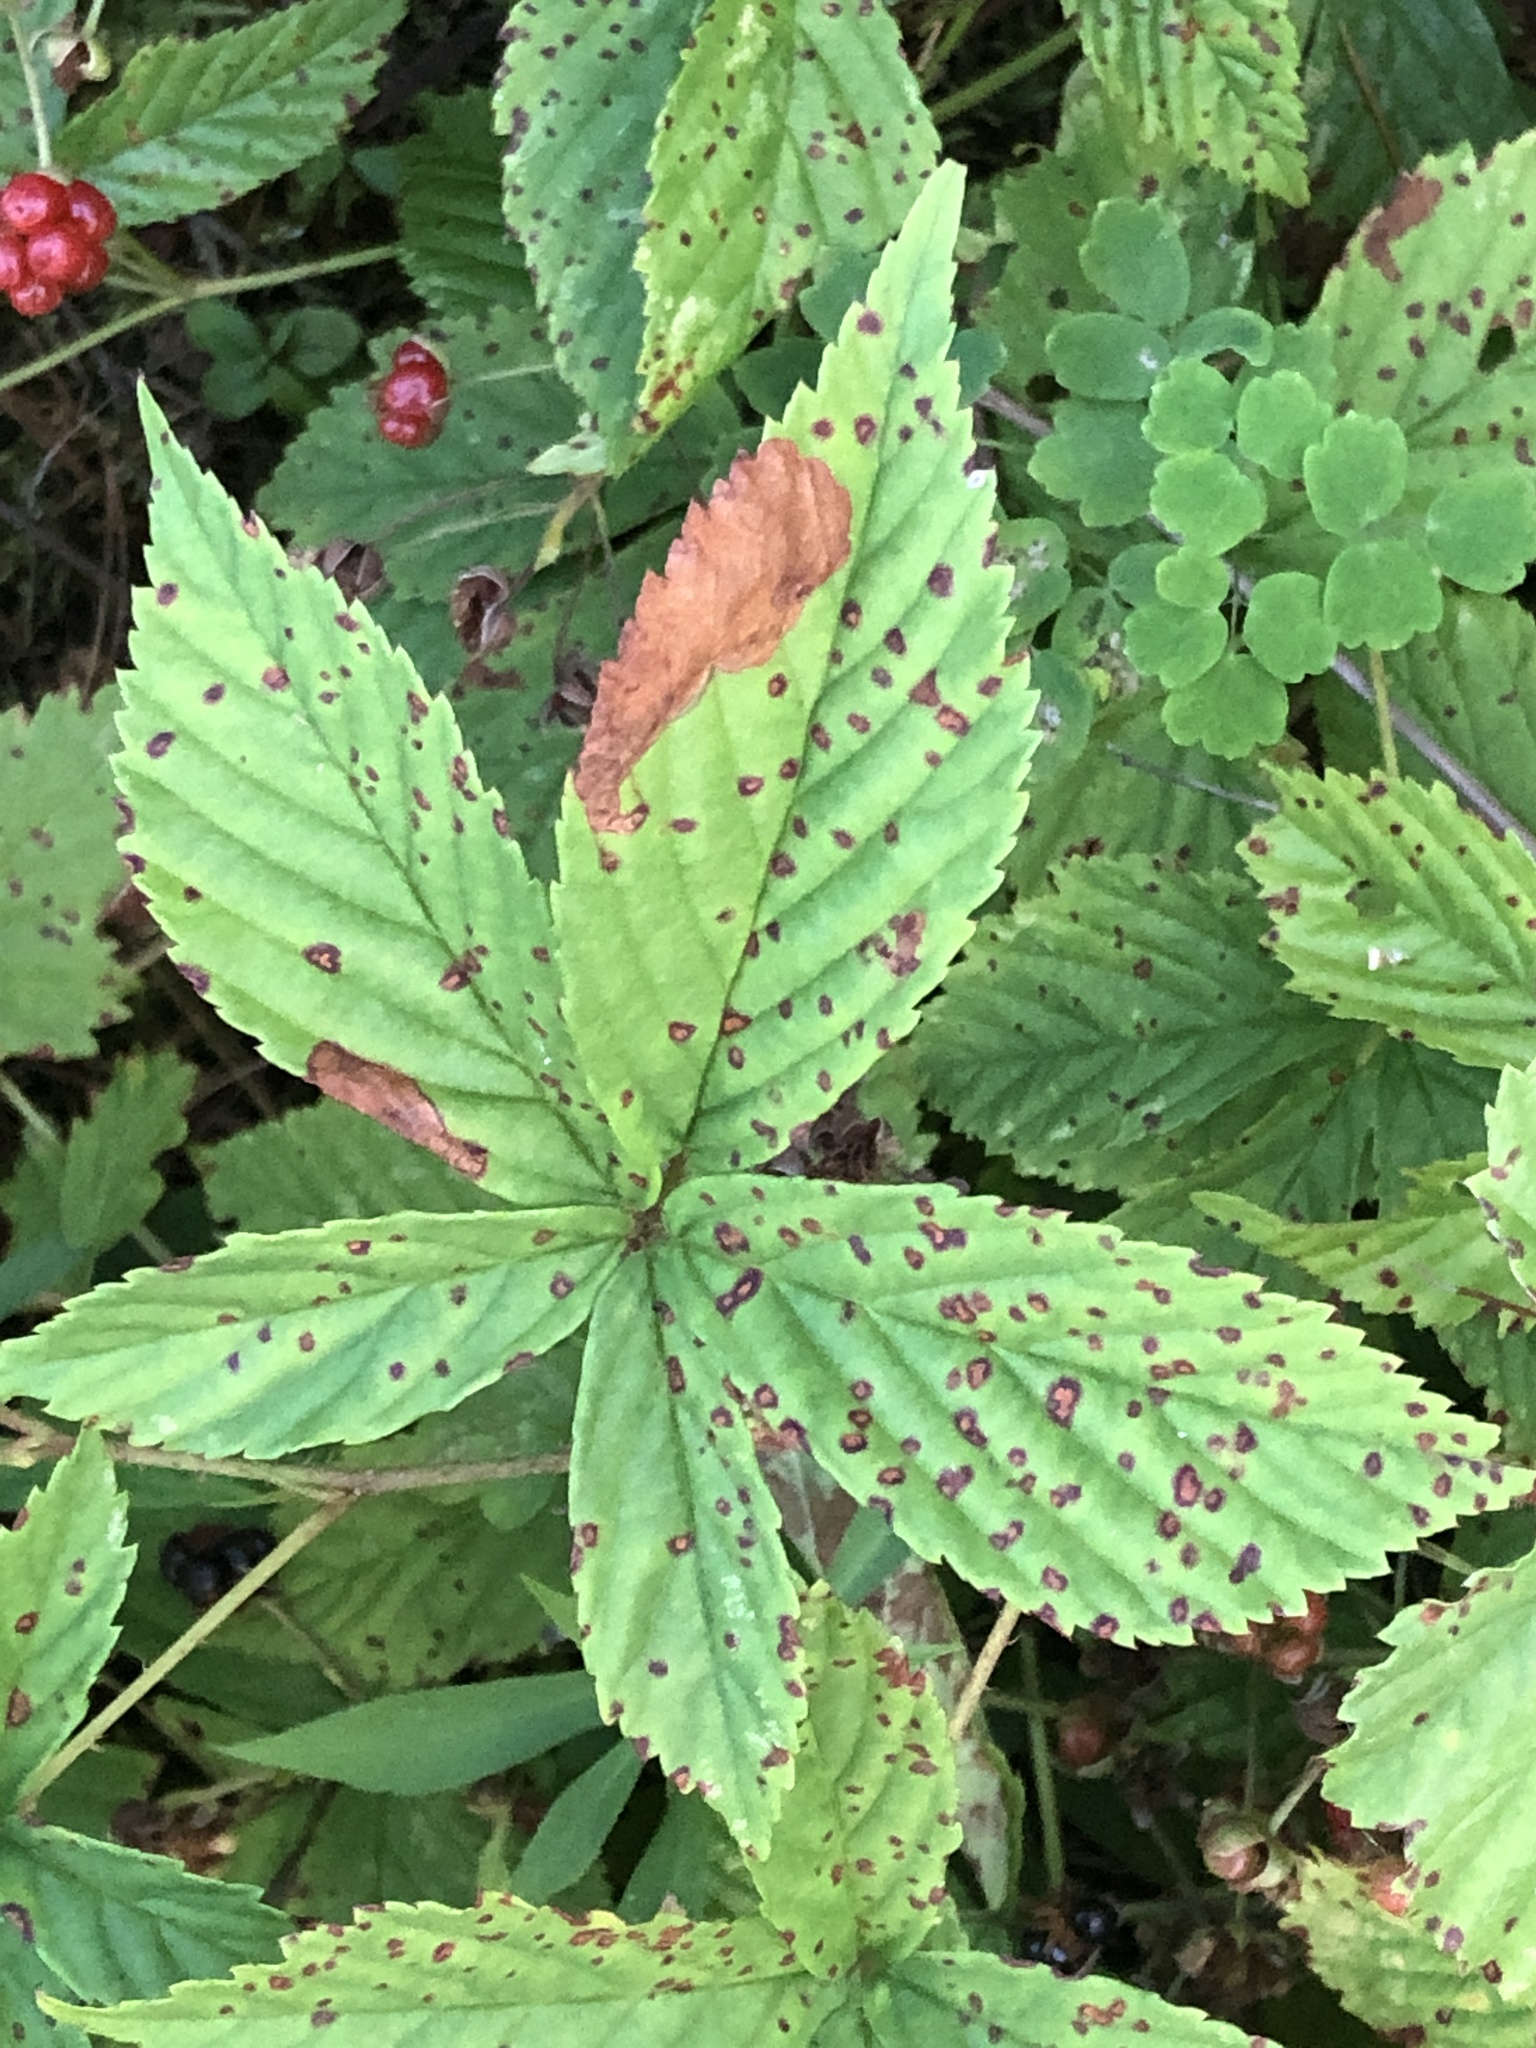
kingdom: Plantae
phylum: Tracheophyta
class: Magnoliopsida
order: Rosales
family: Rosaceae
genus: Rubus
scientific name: Rubus setosus
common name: Bristly blackberry
